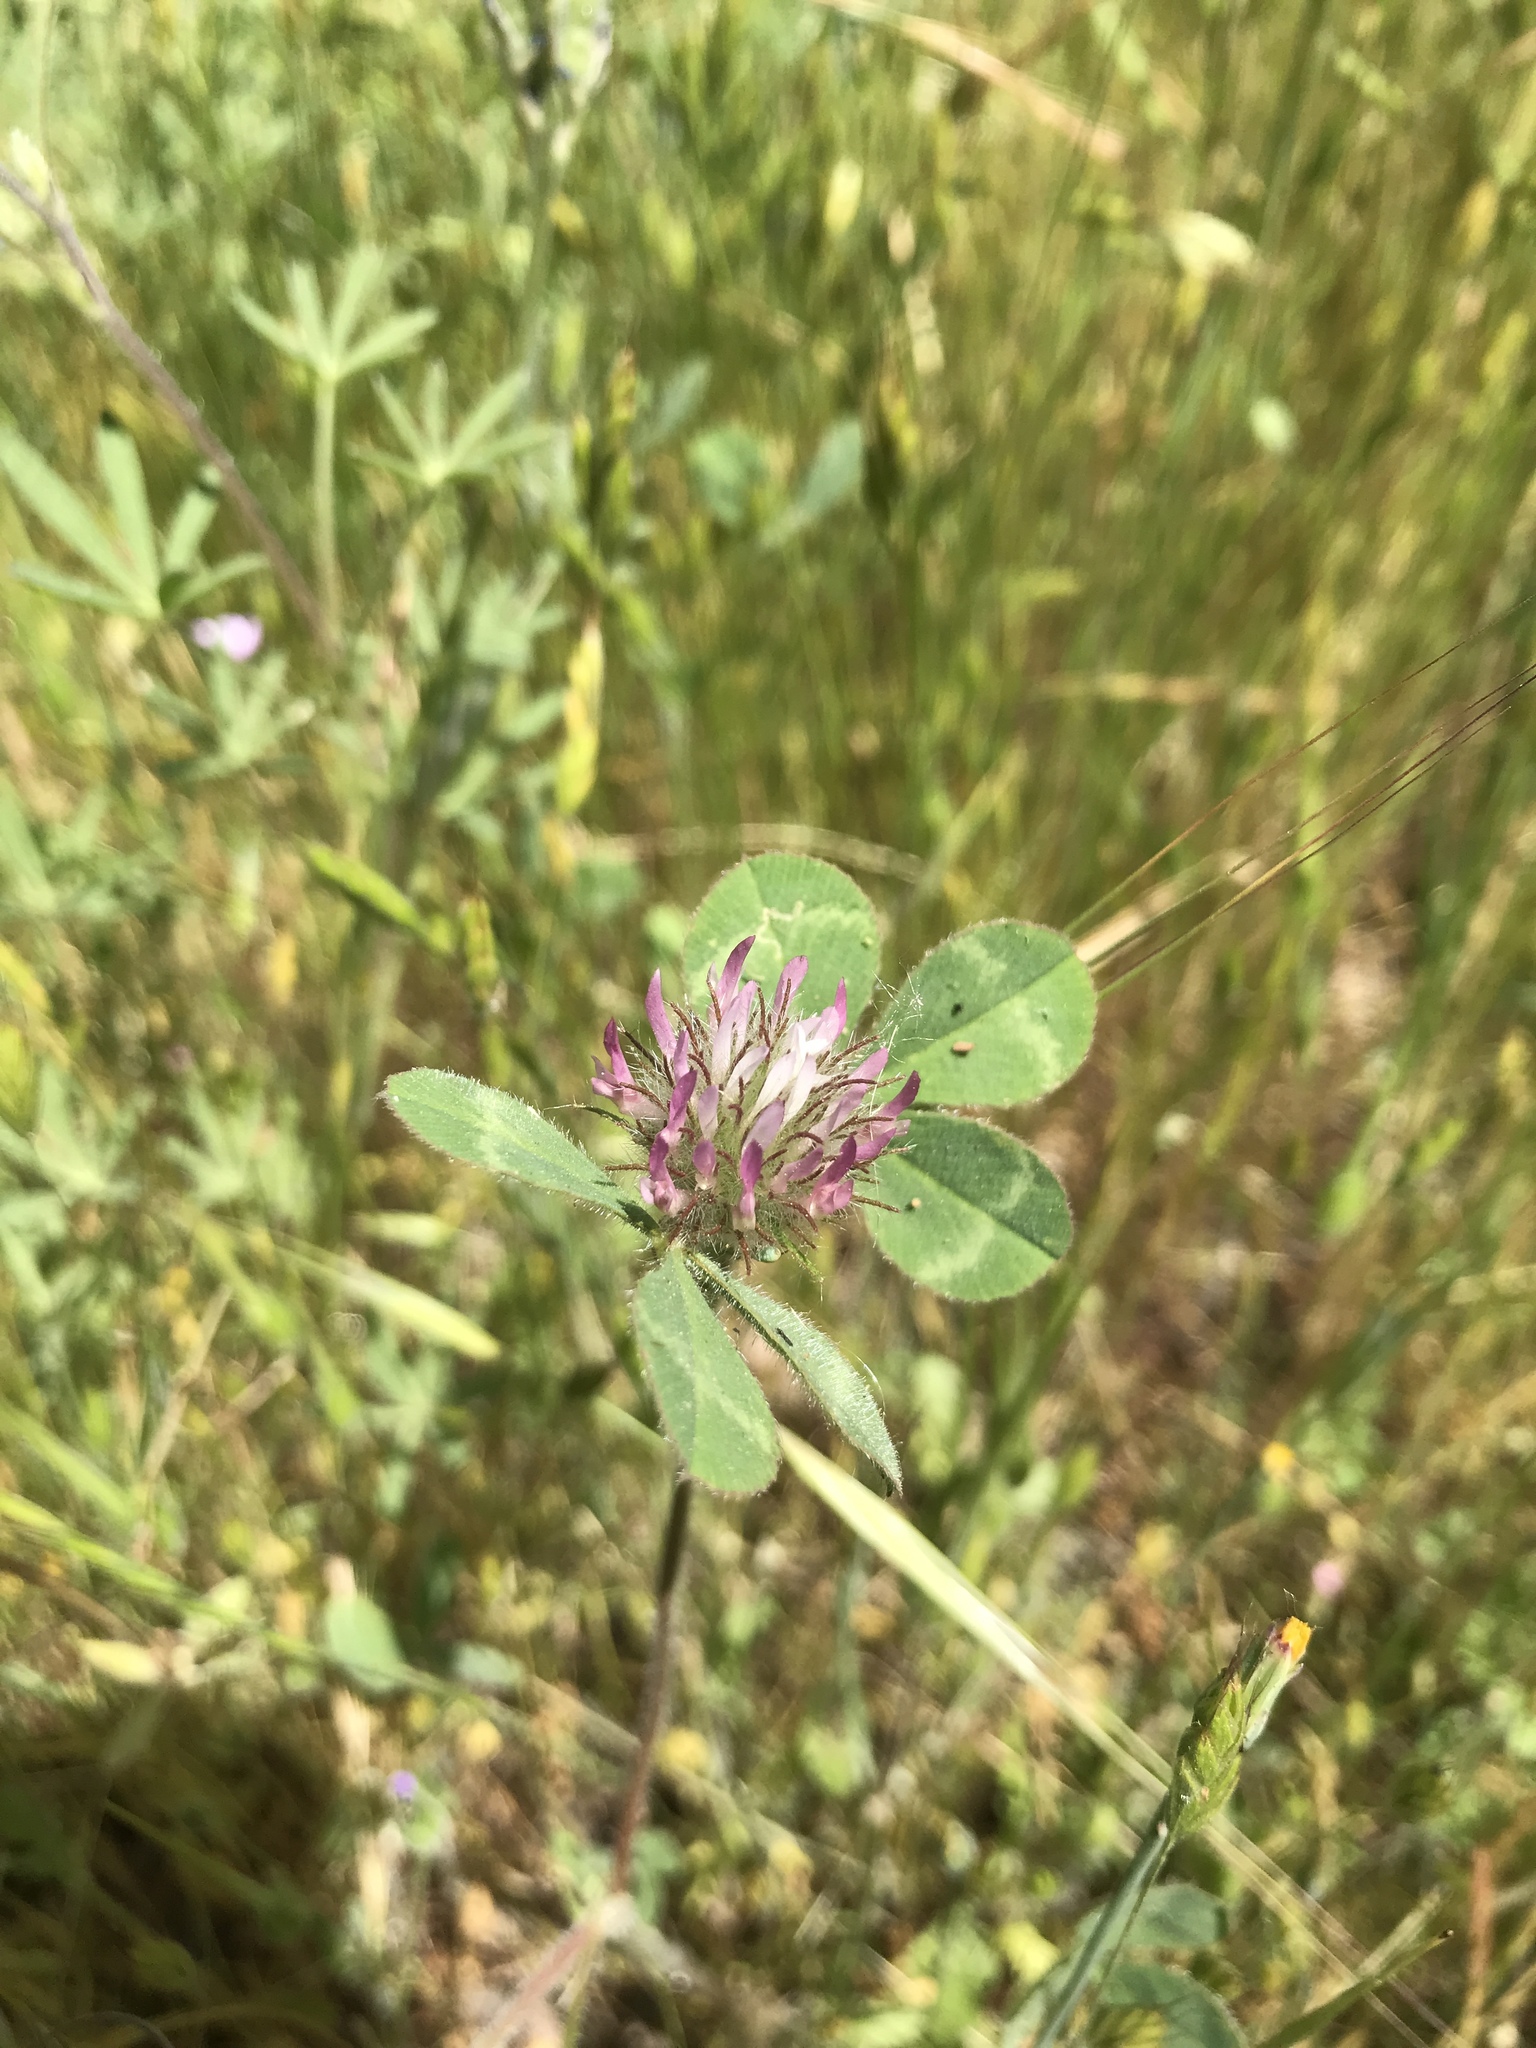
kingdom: Plantae
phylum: Tracheophyta
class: Magnoliopsida
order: Fabales
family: Fabaceae
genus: Trifolium
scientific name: Trifolium hirtum
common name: Rose clover
